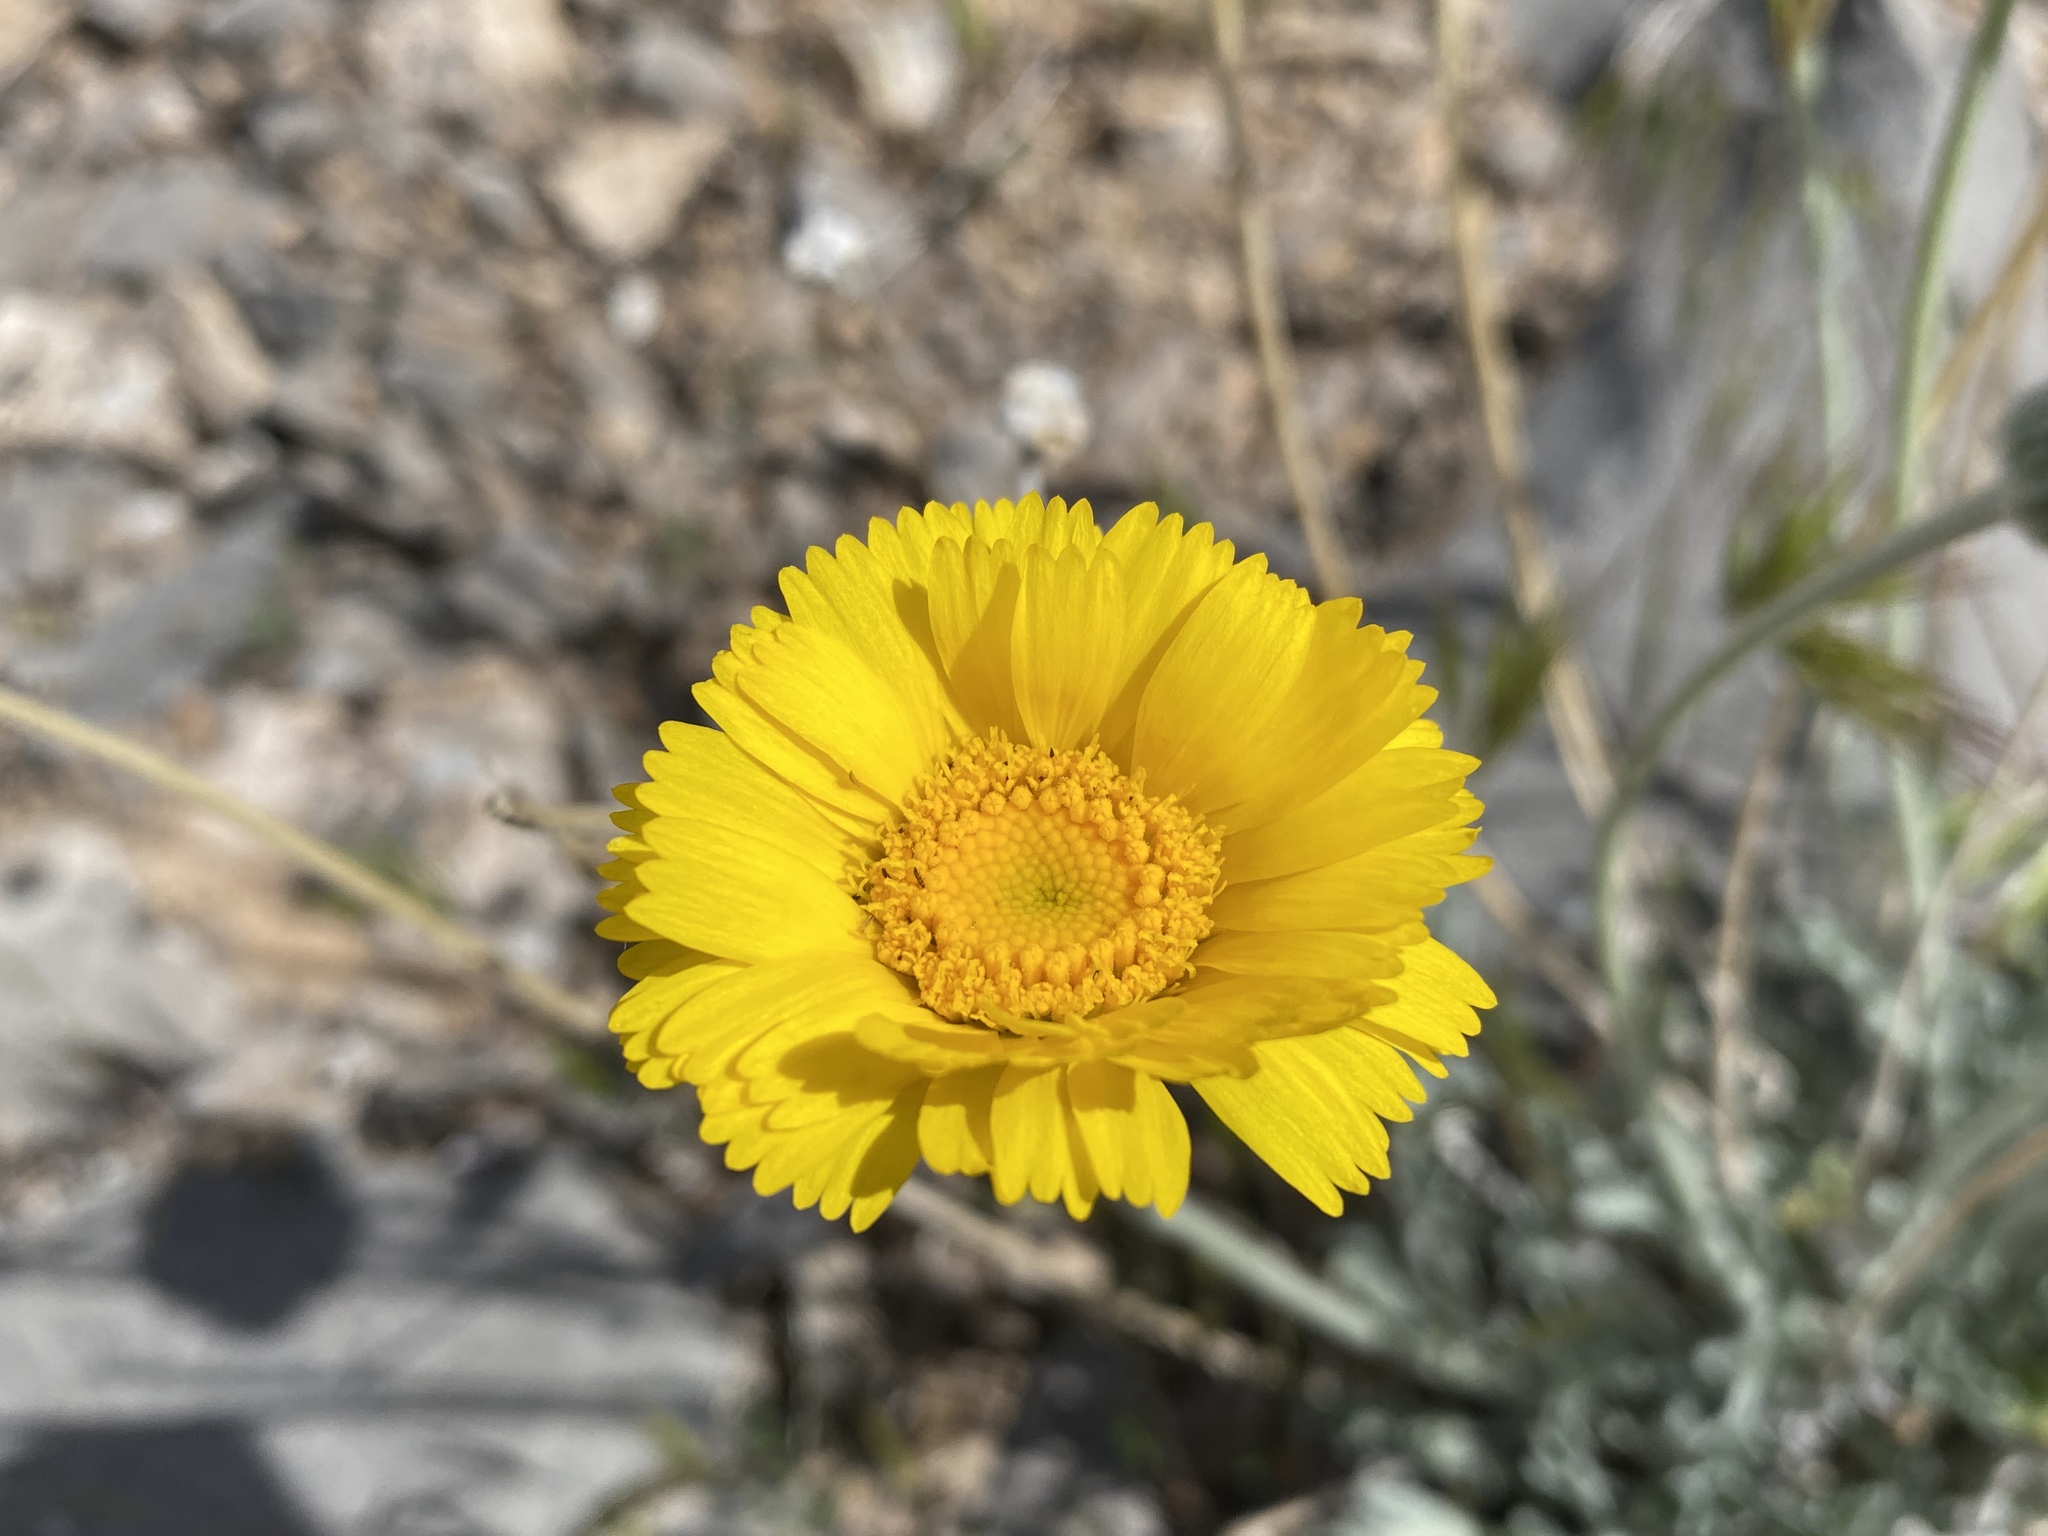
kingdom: Plantae
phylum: Tracheophyta
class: Magnoliopsida
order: Asterales
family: Asteraceae
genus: Baileya
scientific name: Baileya multiradiata
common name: Desert-marigold
